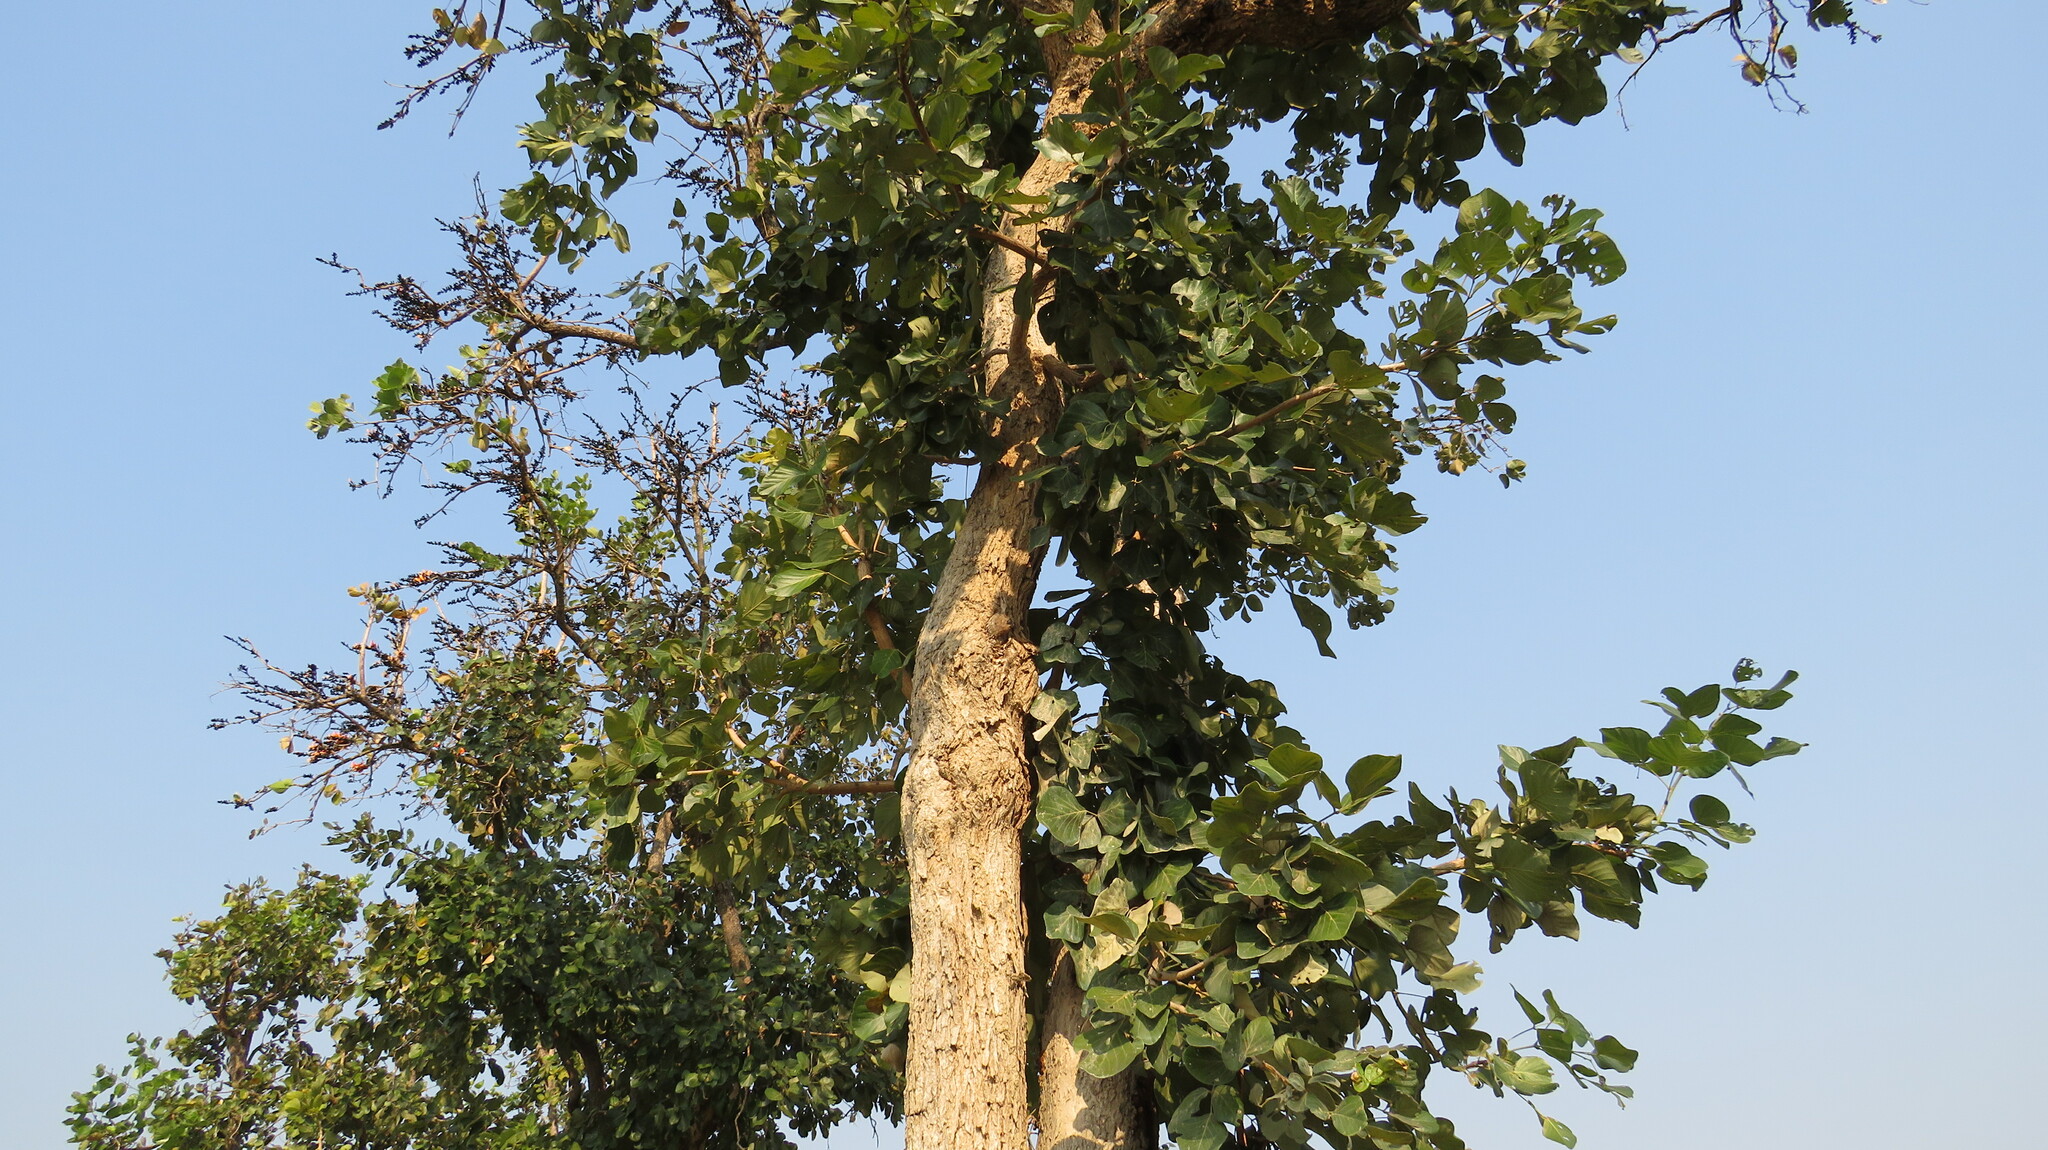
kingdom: Plantae
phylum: Tracheophyta
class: Magnoliopsida
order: Fabales
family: Fabaceae
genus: Butea
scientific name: Butea monosperma
